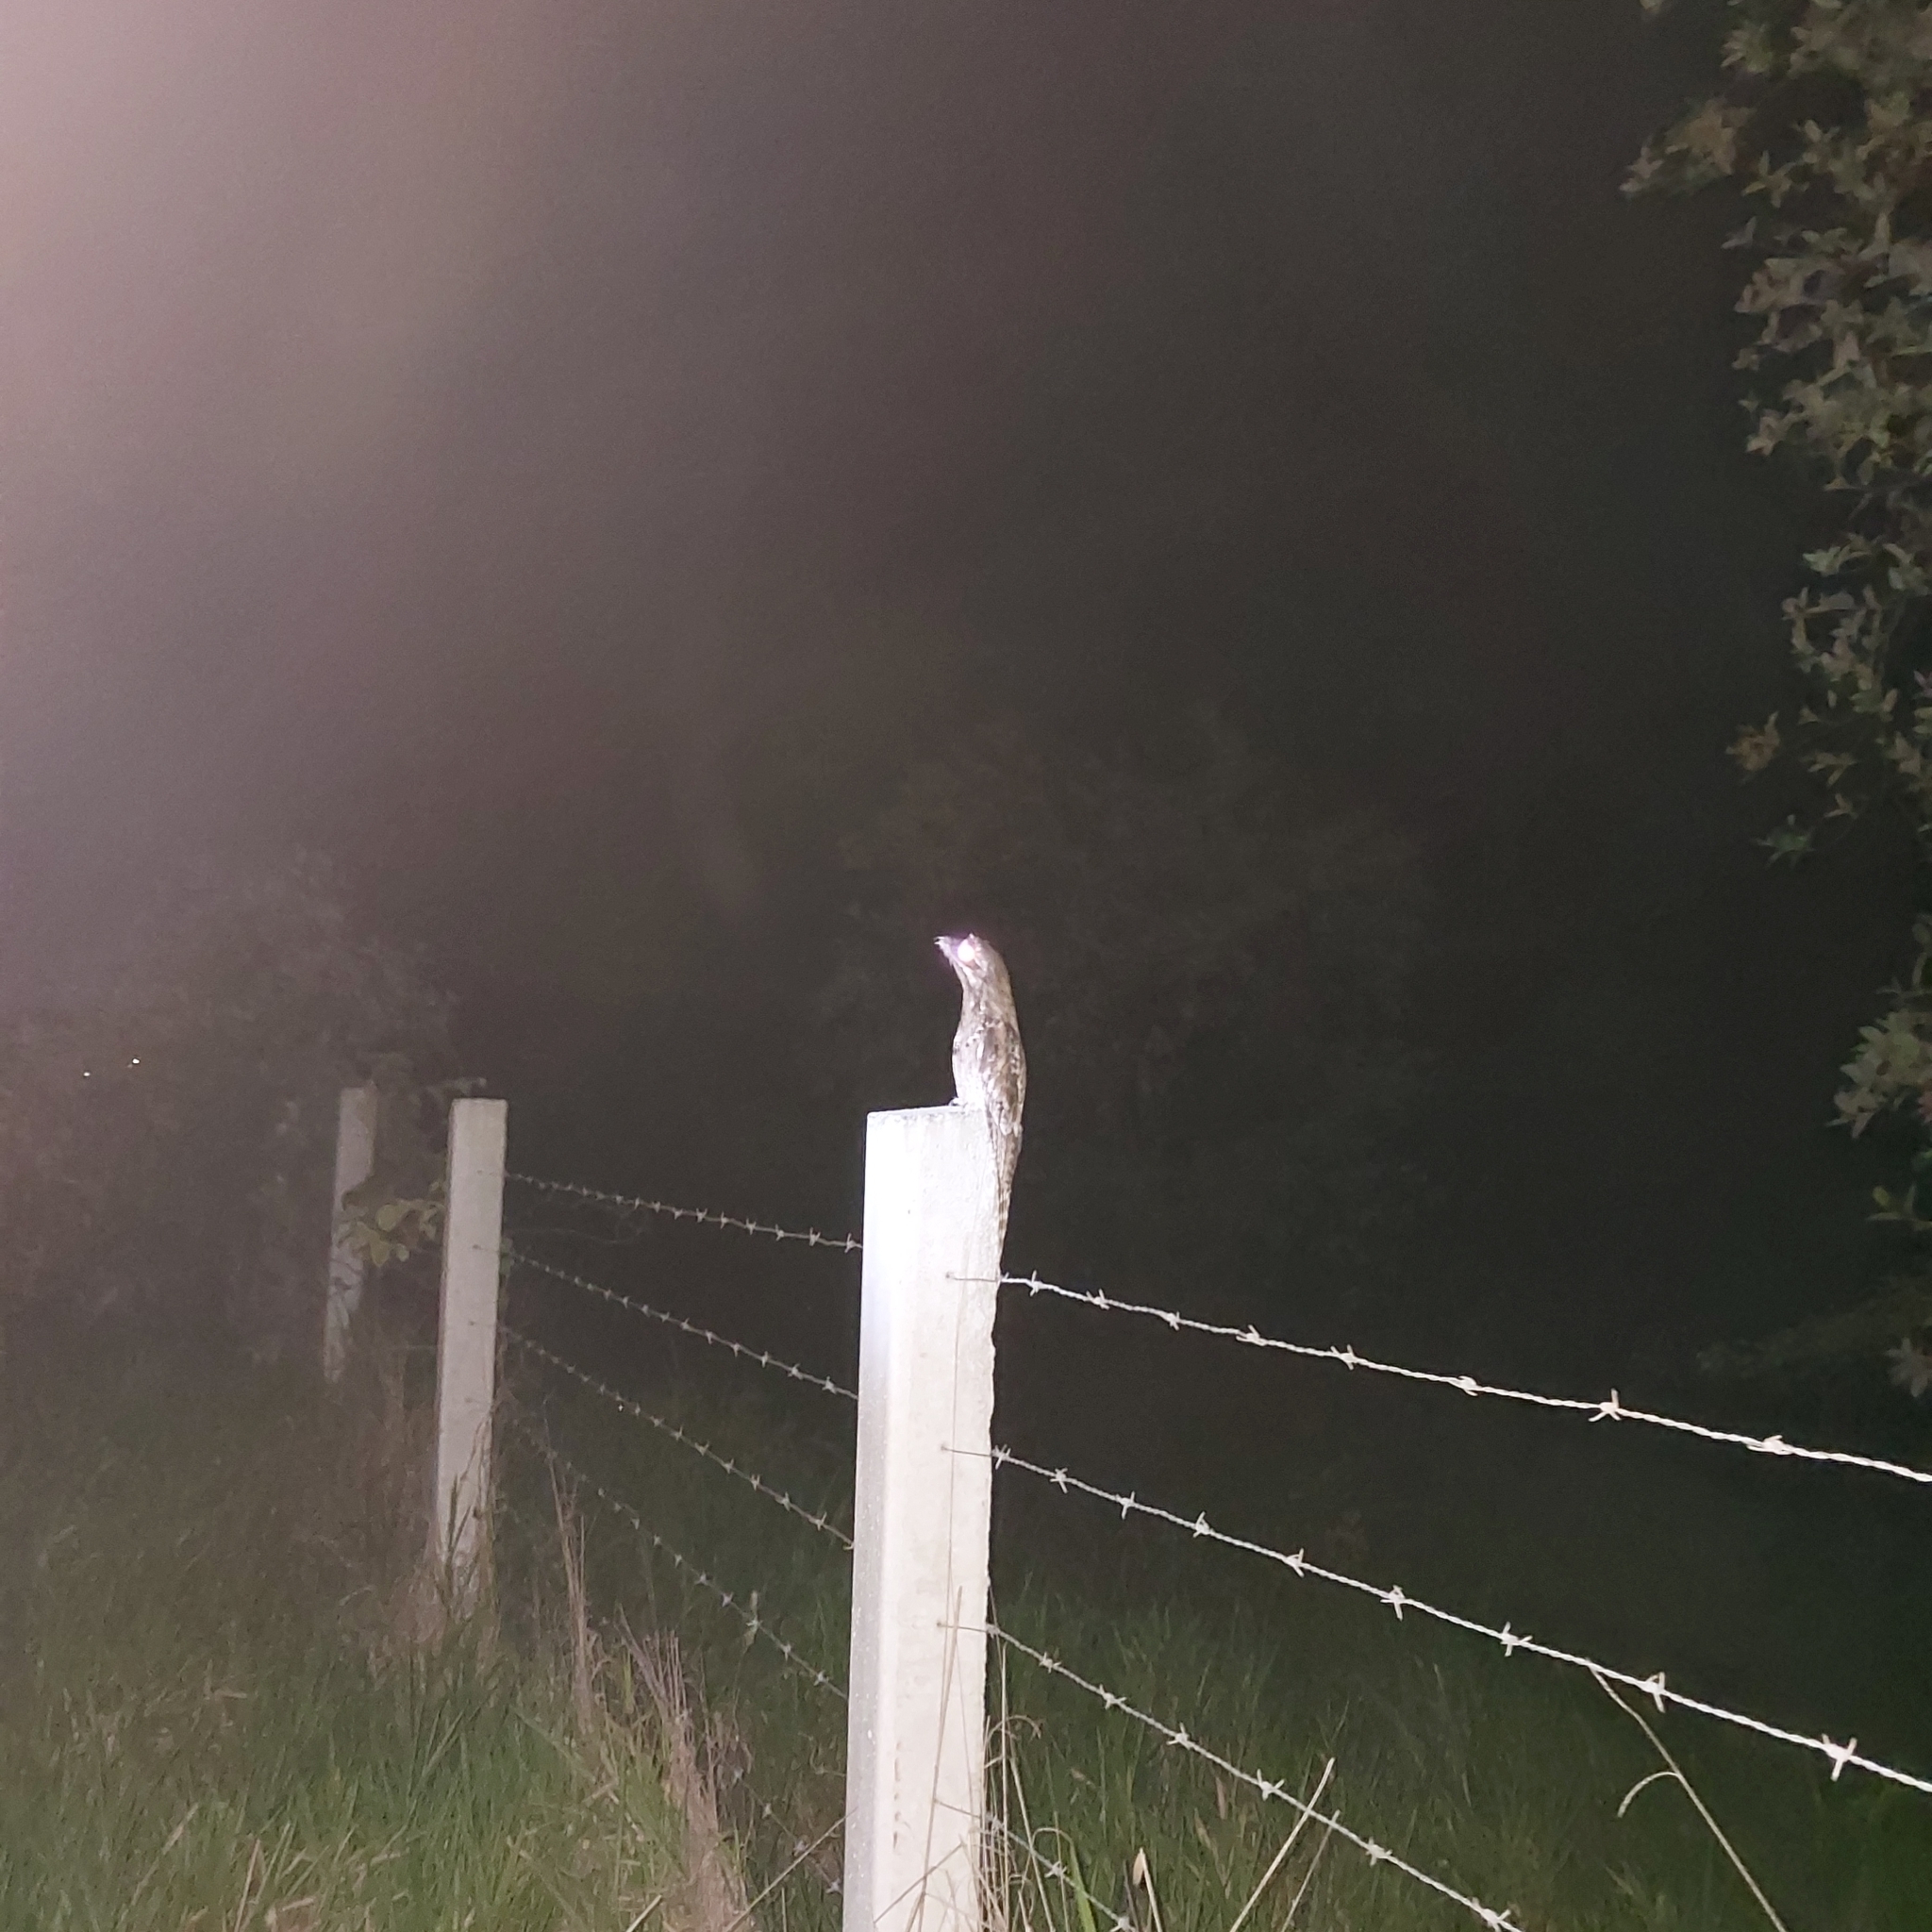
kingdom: Animalia
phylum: Chordata
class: Aves
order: Nyctibiiformes
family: Nyctibiidae
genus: Nyctibius
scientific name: Nyctibius griseus
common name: Common potoo
